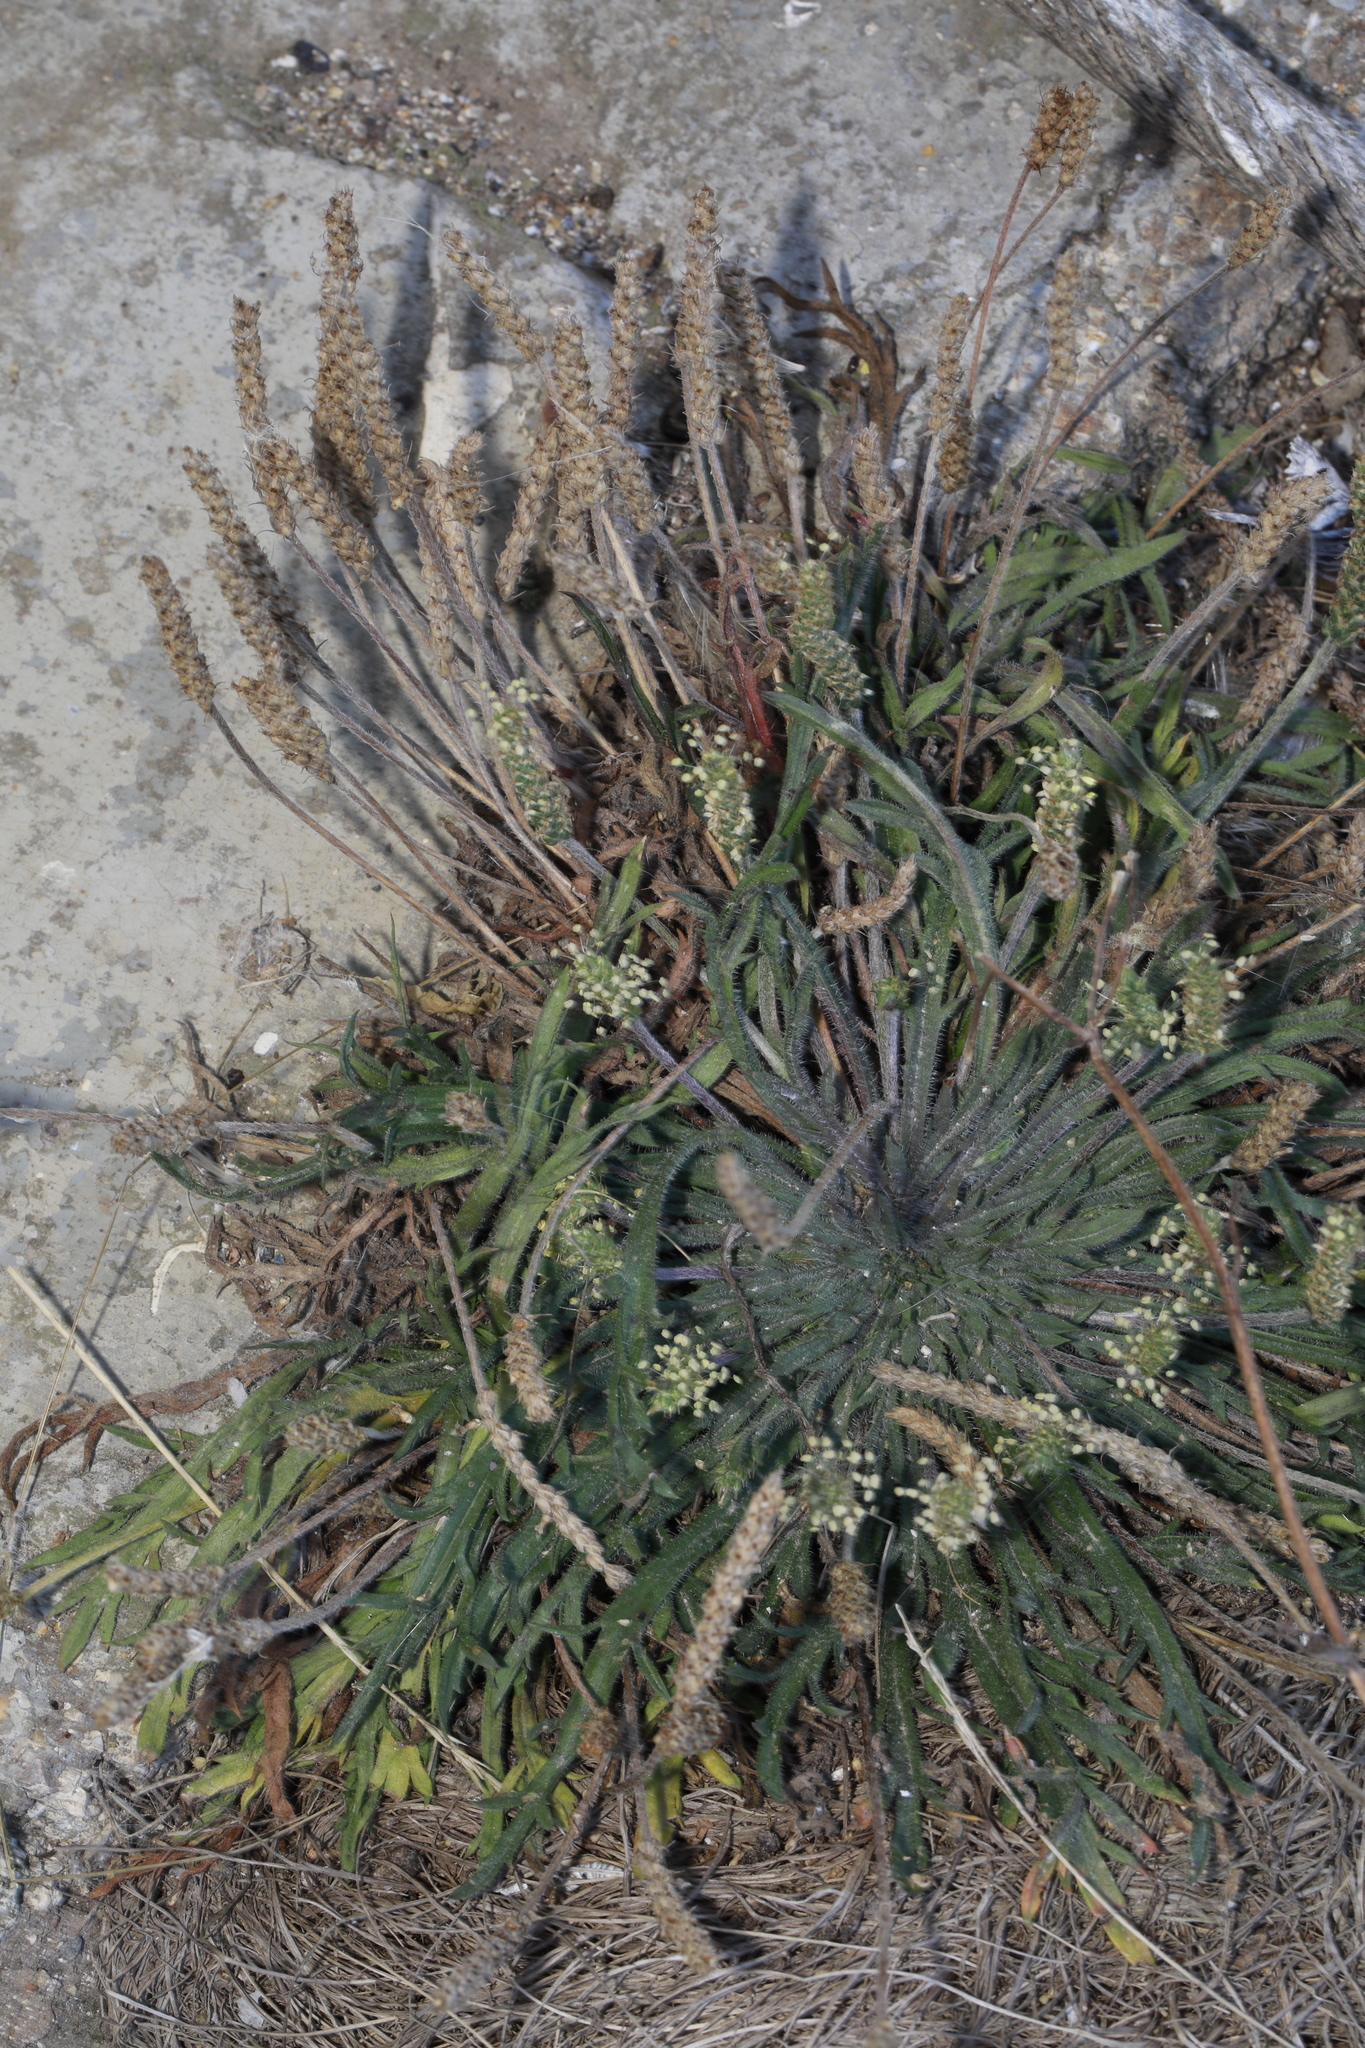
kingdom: Plantae
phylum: Tracheophyta
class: Magnoliopsida
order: Lamiales
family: Plantaginaceae
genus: Plantago
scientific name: Plantago coronopus
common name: Buck's-horn plantain
